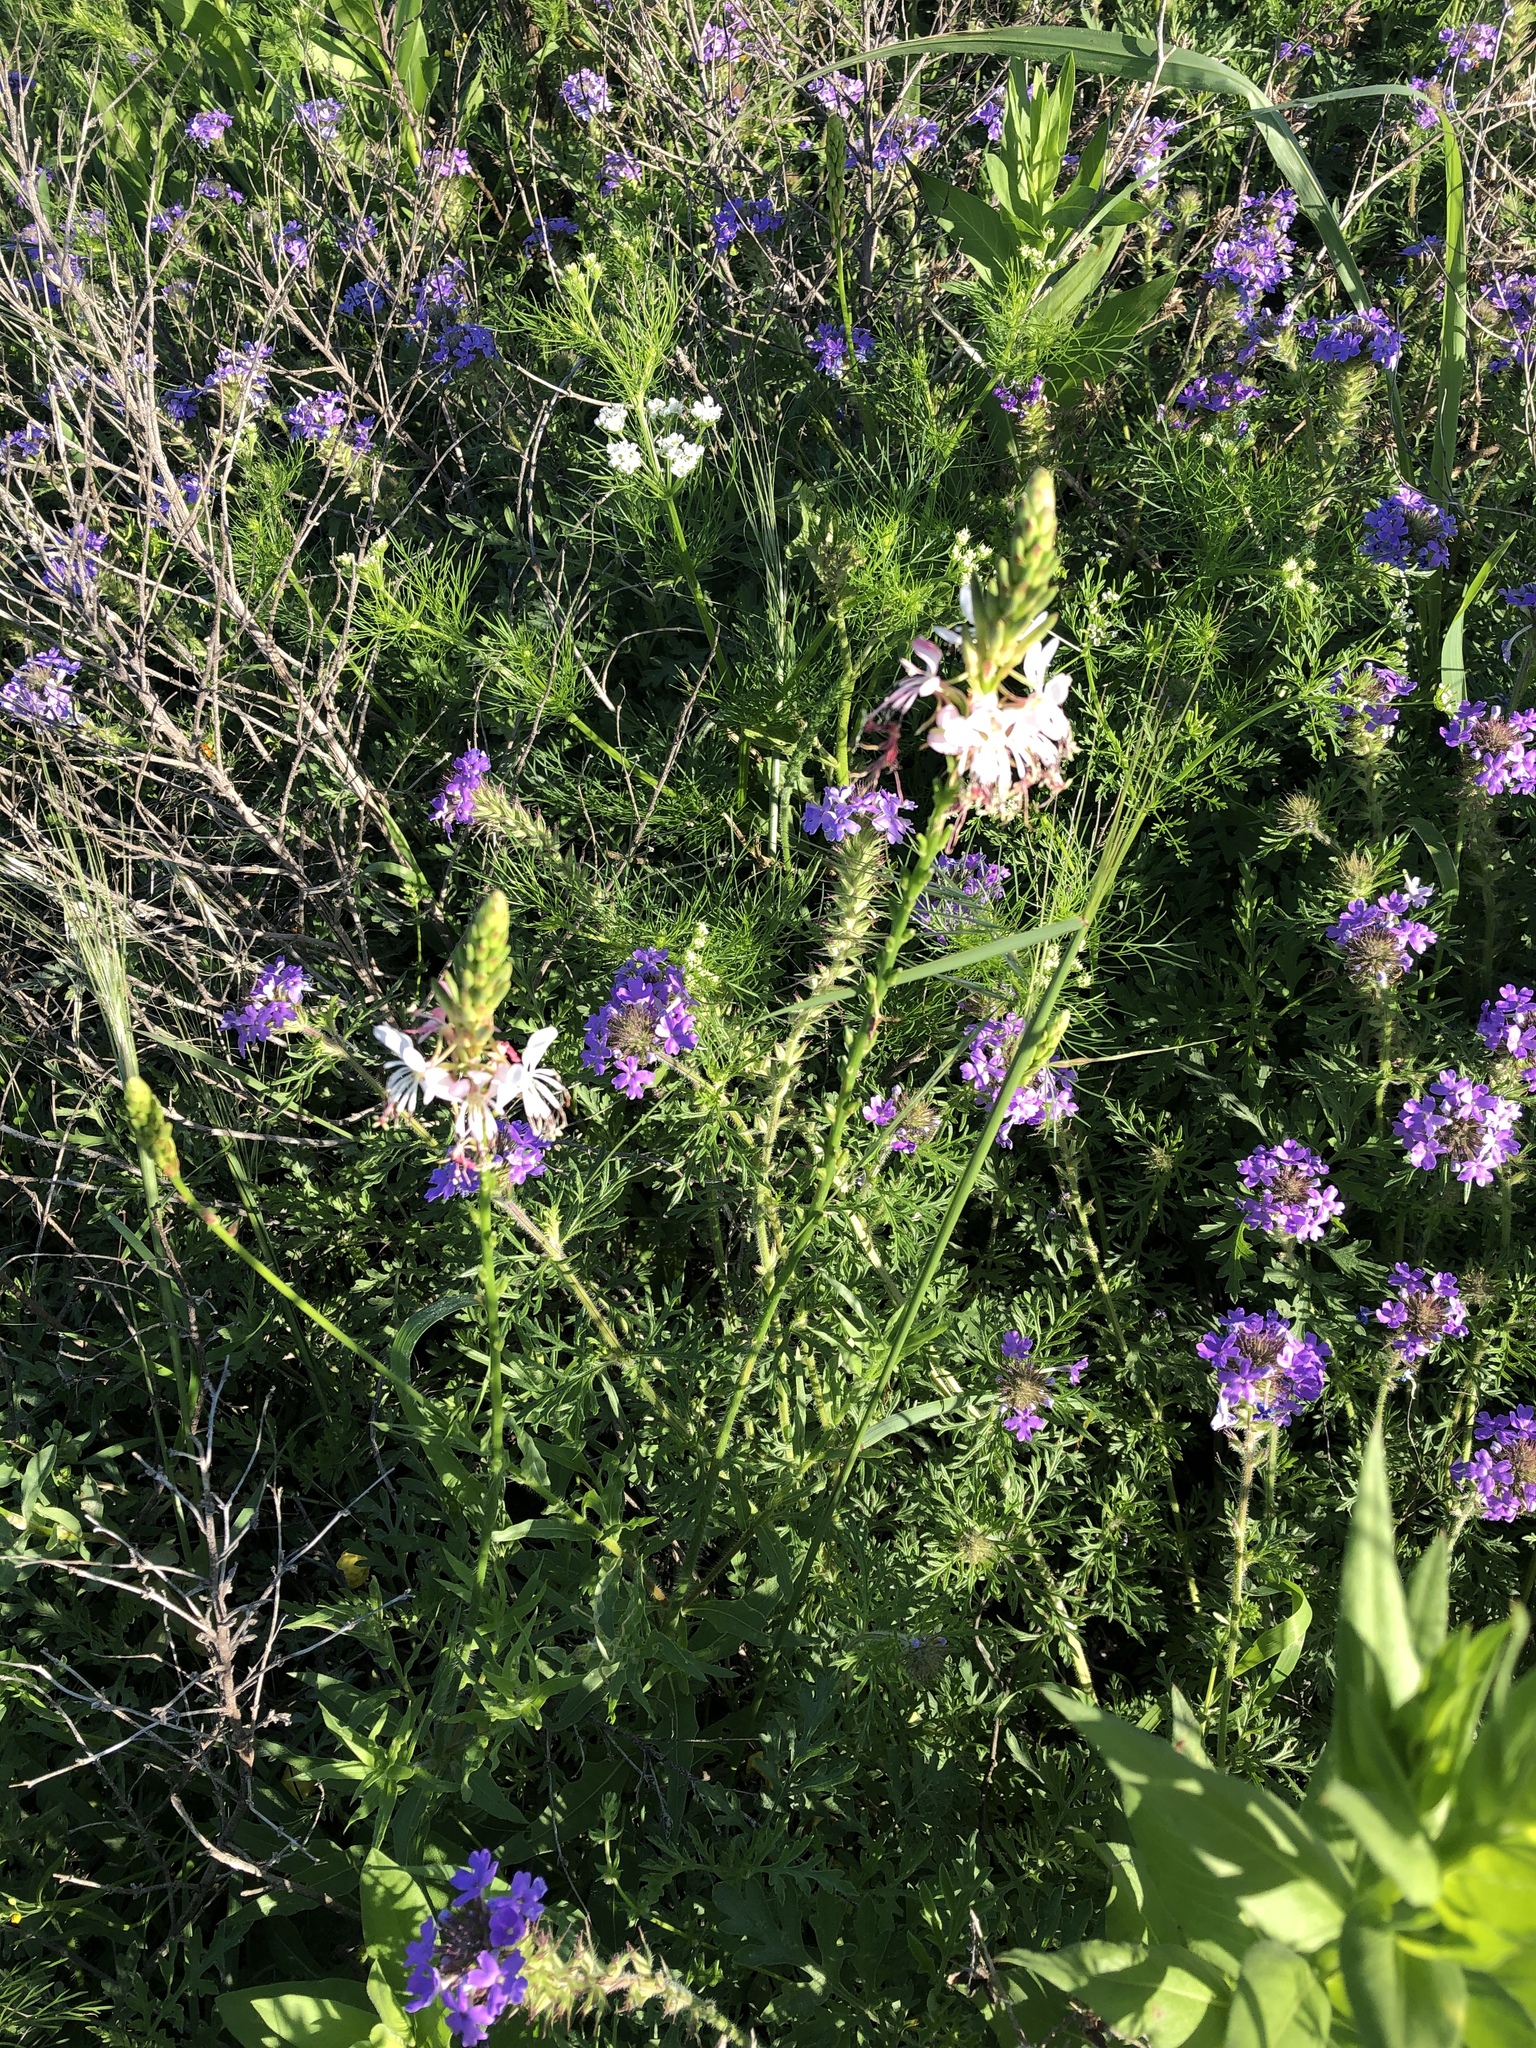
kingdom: Plantae
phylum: Tracheophyta
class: Magnoliopsida
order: Myrtales
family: Onagraceae
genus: Oenothera
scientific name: Oenothera suffulta
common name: Kisses
